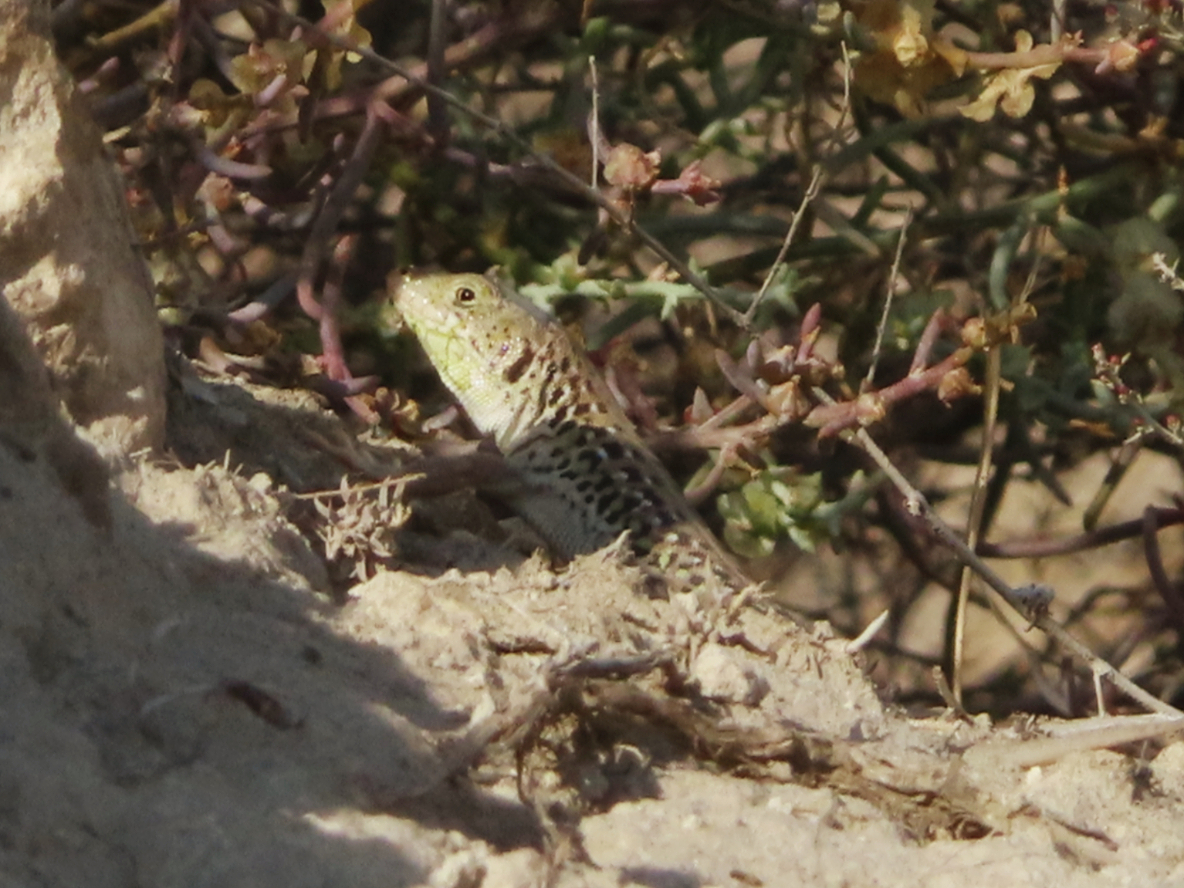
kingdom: Animalia
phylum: Chordata
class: Squamata
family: Lacertidae
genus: Eremias
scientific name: Eremias strauchi
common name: Strauch's racerunner
